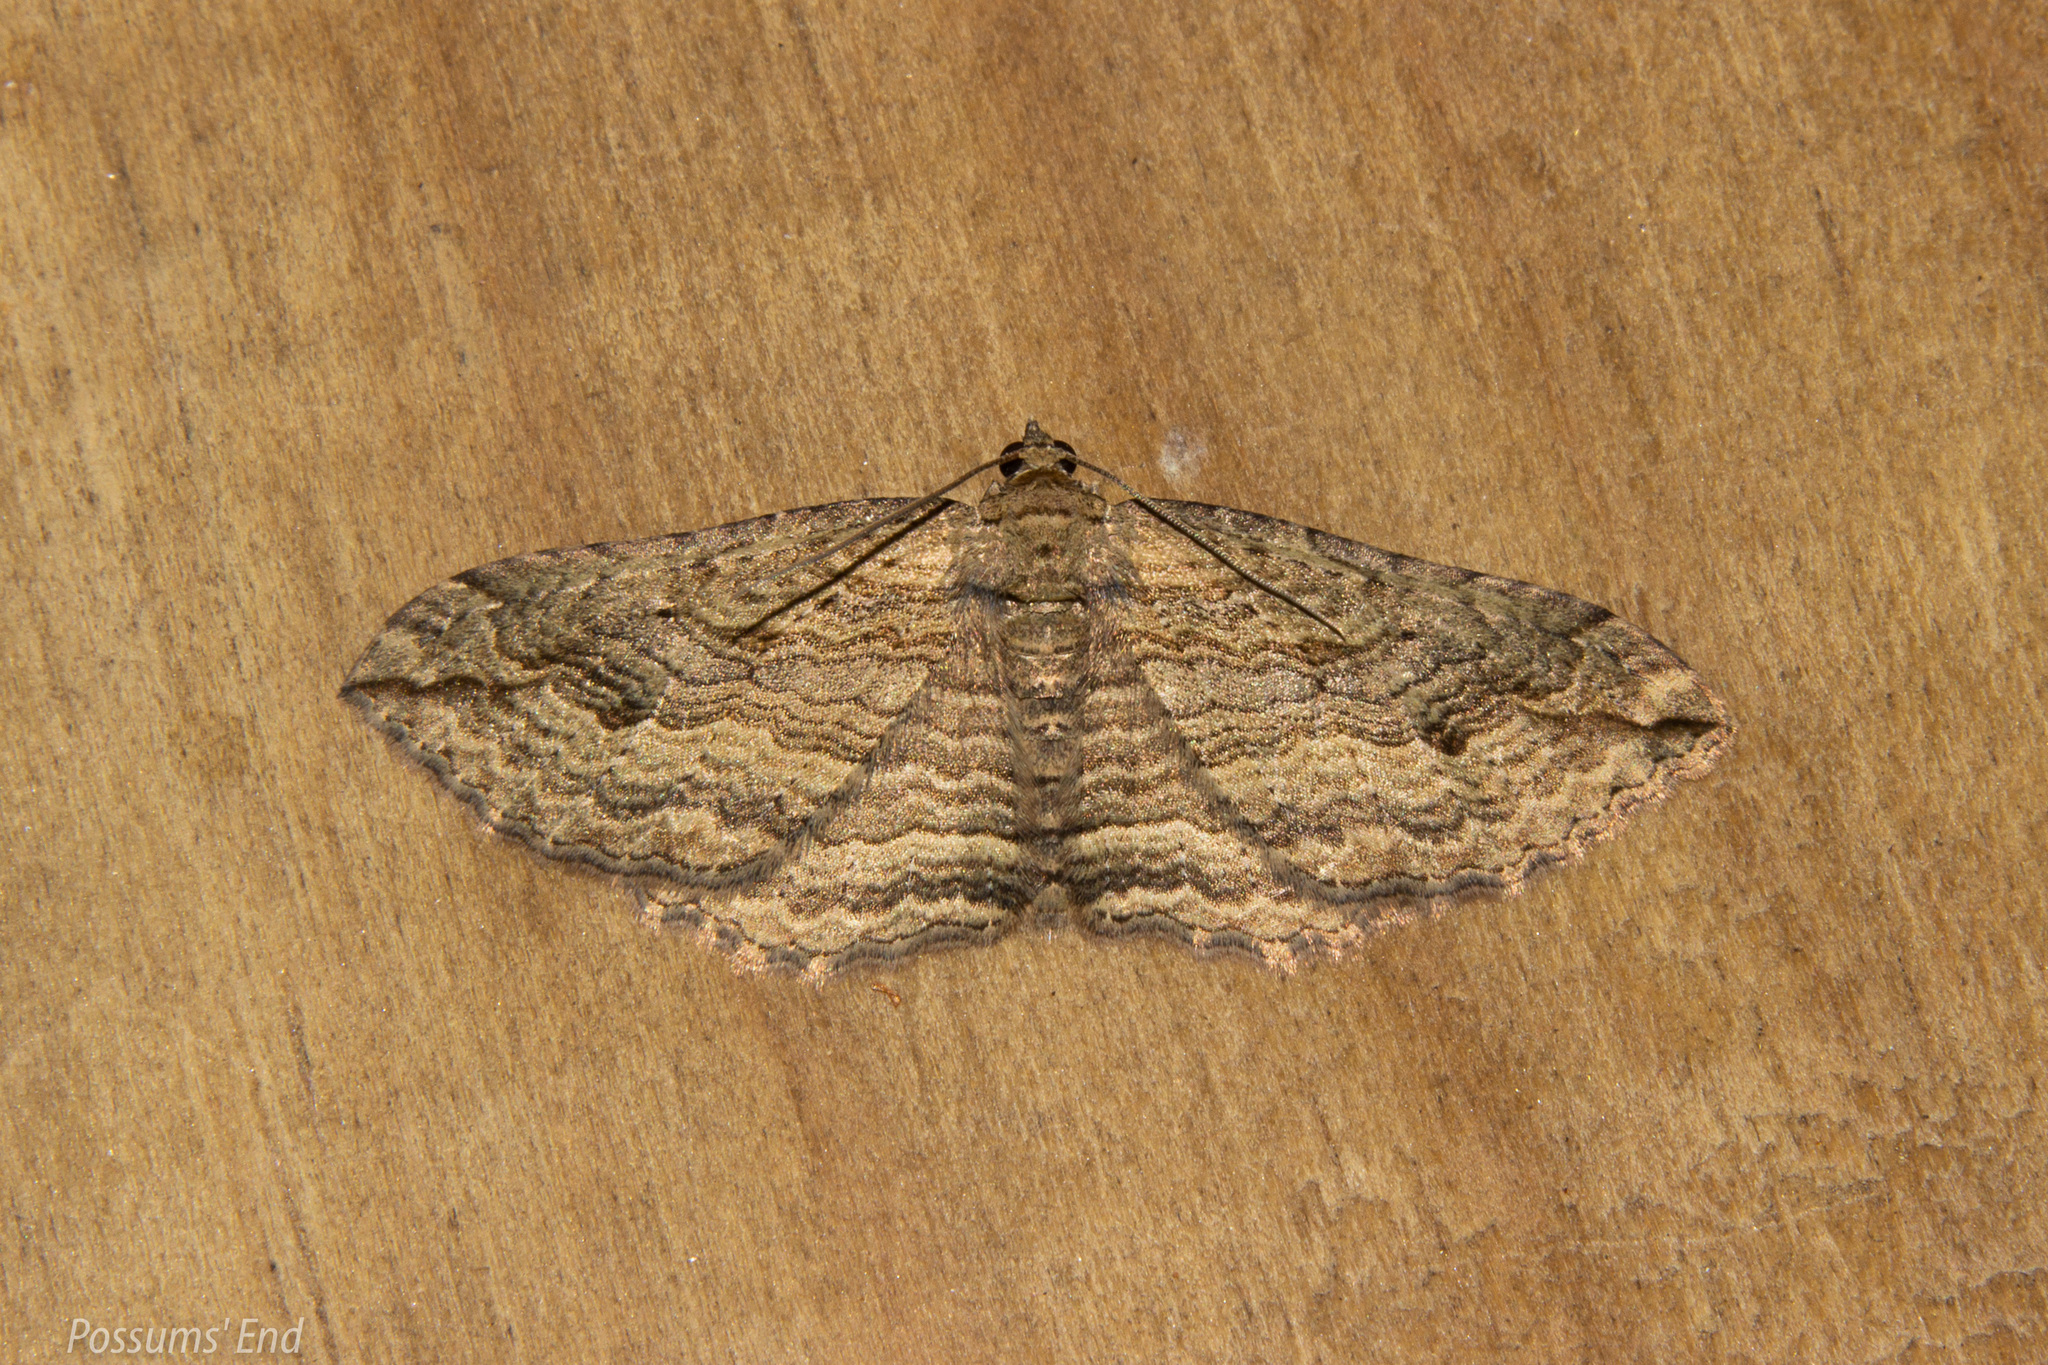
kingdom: Animalia
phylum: Arthropoda
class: Insecta
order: Lepidoptera
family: Geometridae
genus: Austrocidaria
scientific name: Austrocidaria gobiata
